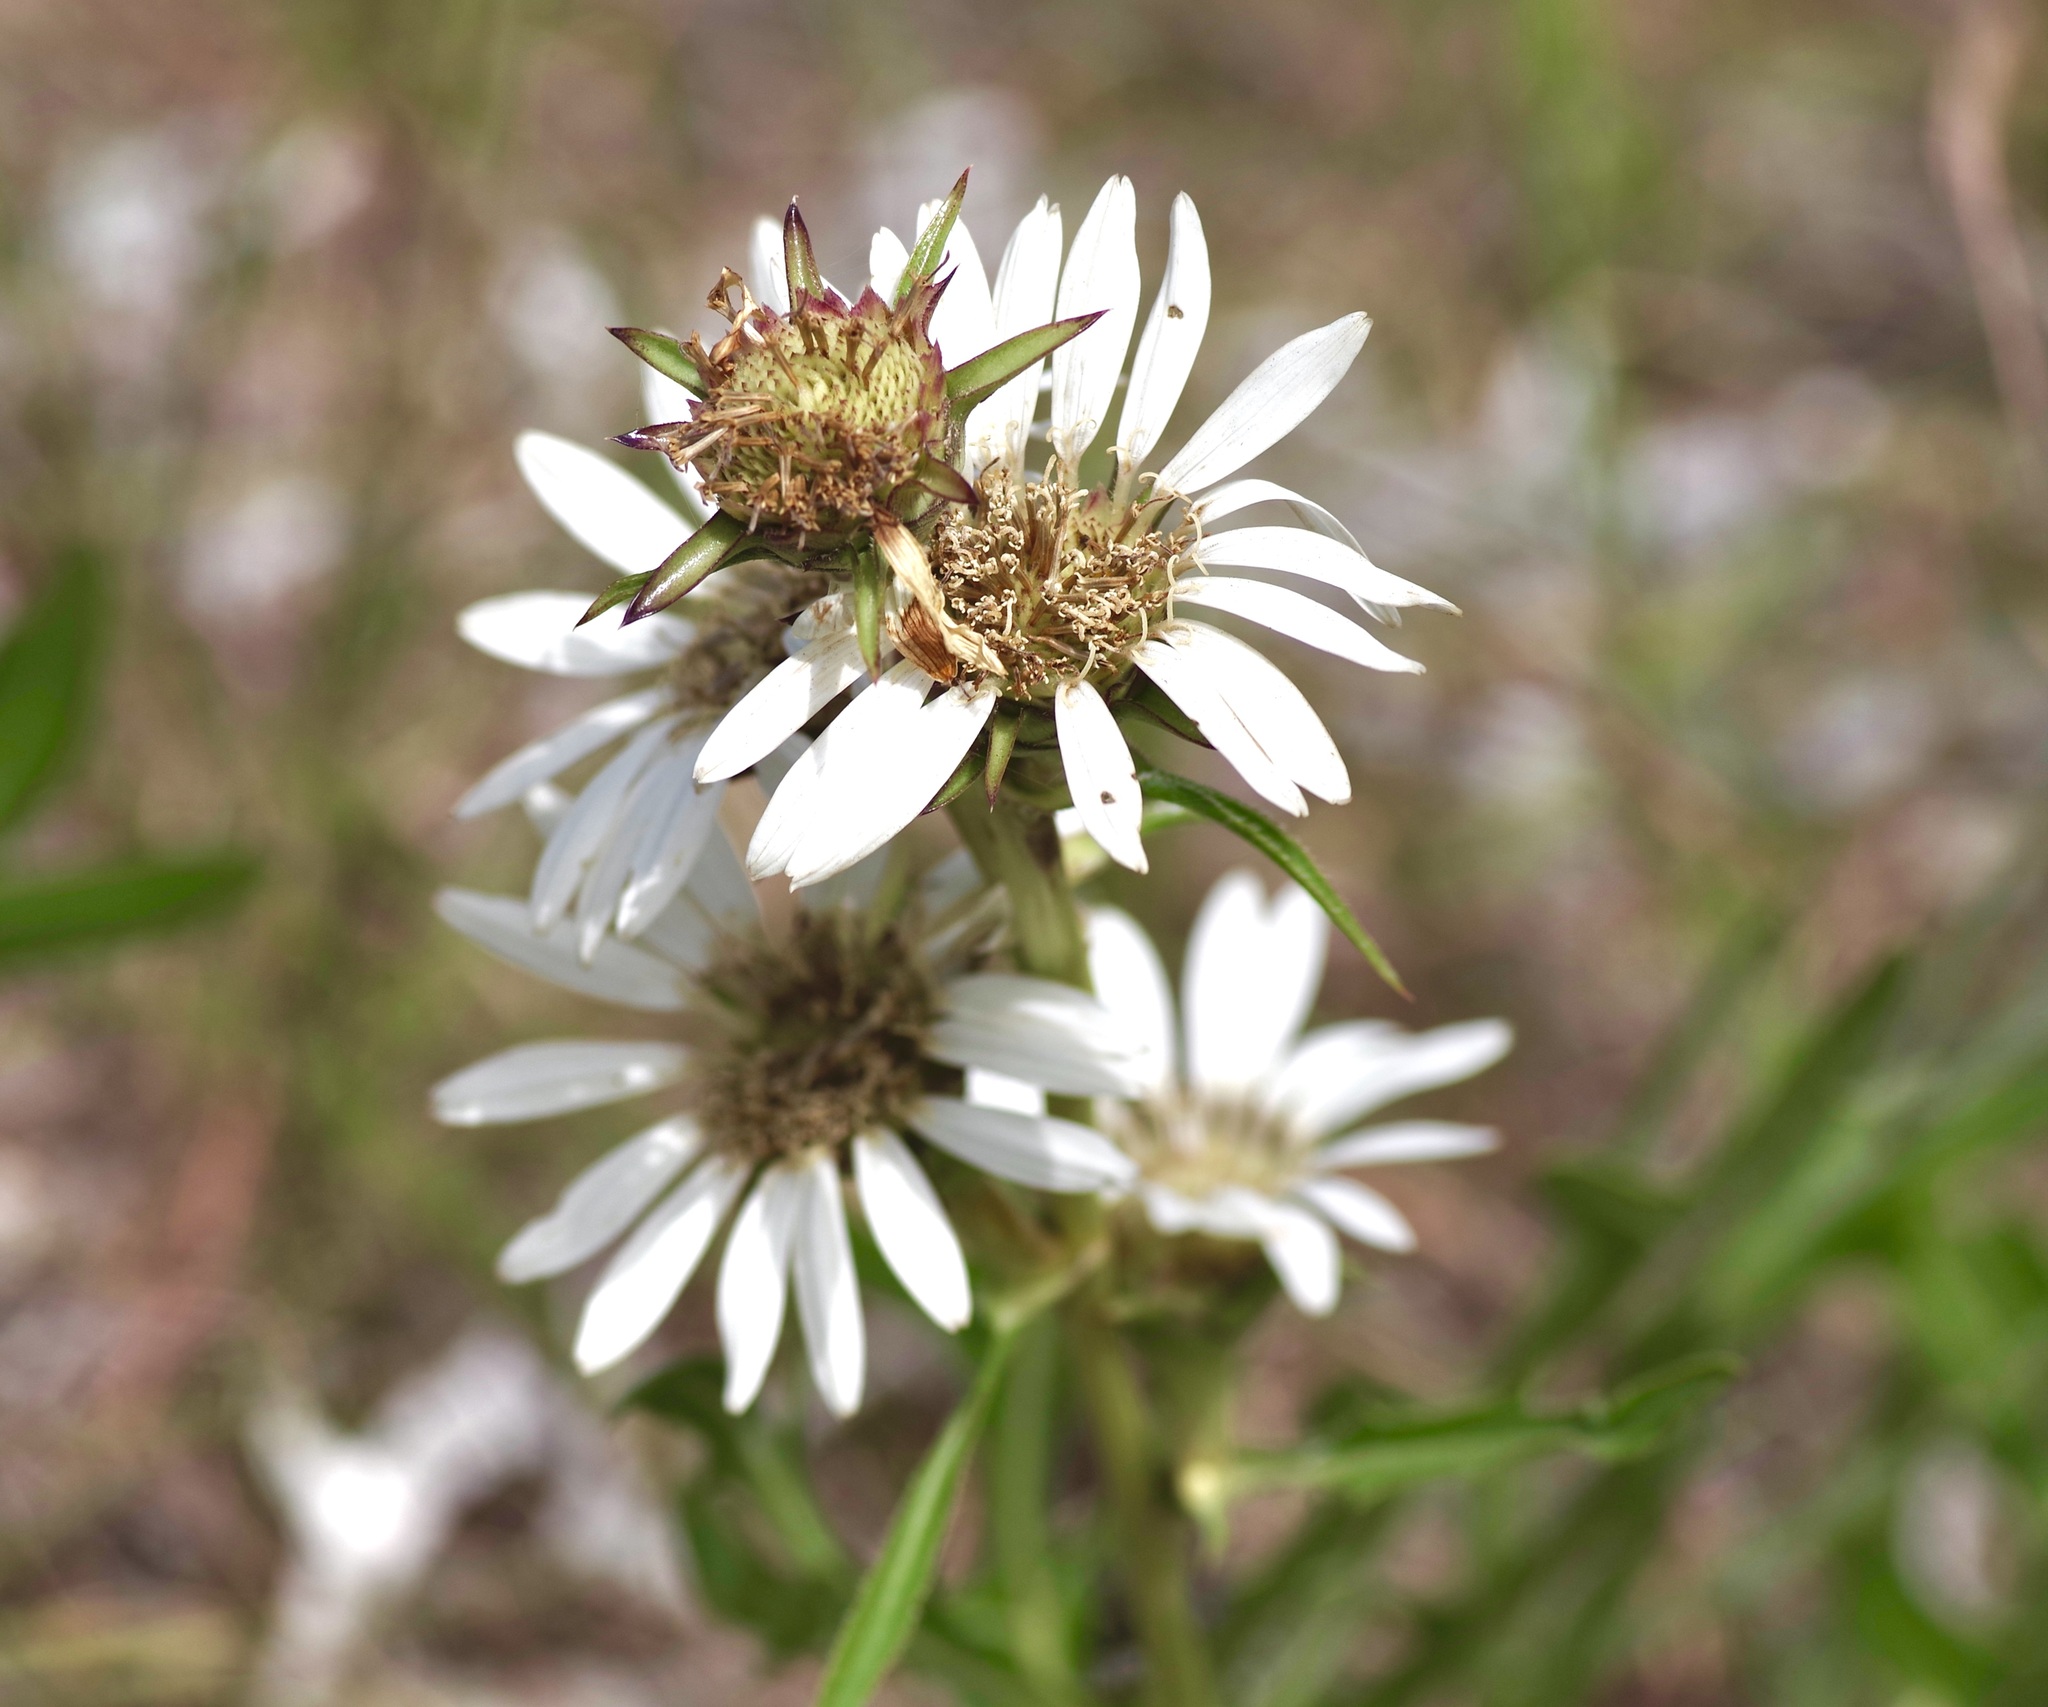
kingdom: Plantae
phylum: Tracheophyta
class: Magnoliopsida
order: Asterales
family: Asteraceae
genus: Silphium
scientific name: Silphium albiflorum
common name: White rosinweed
